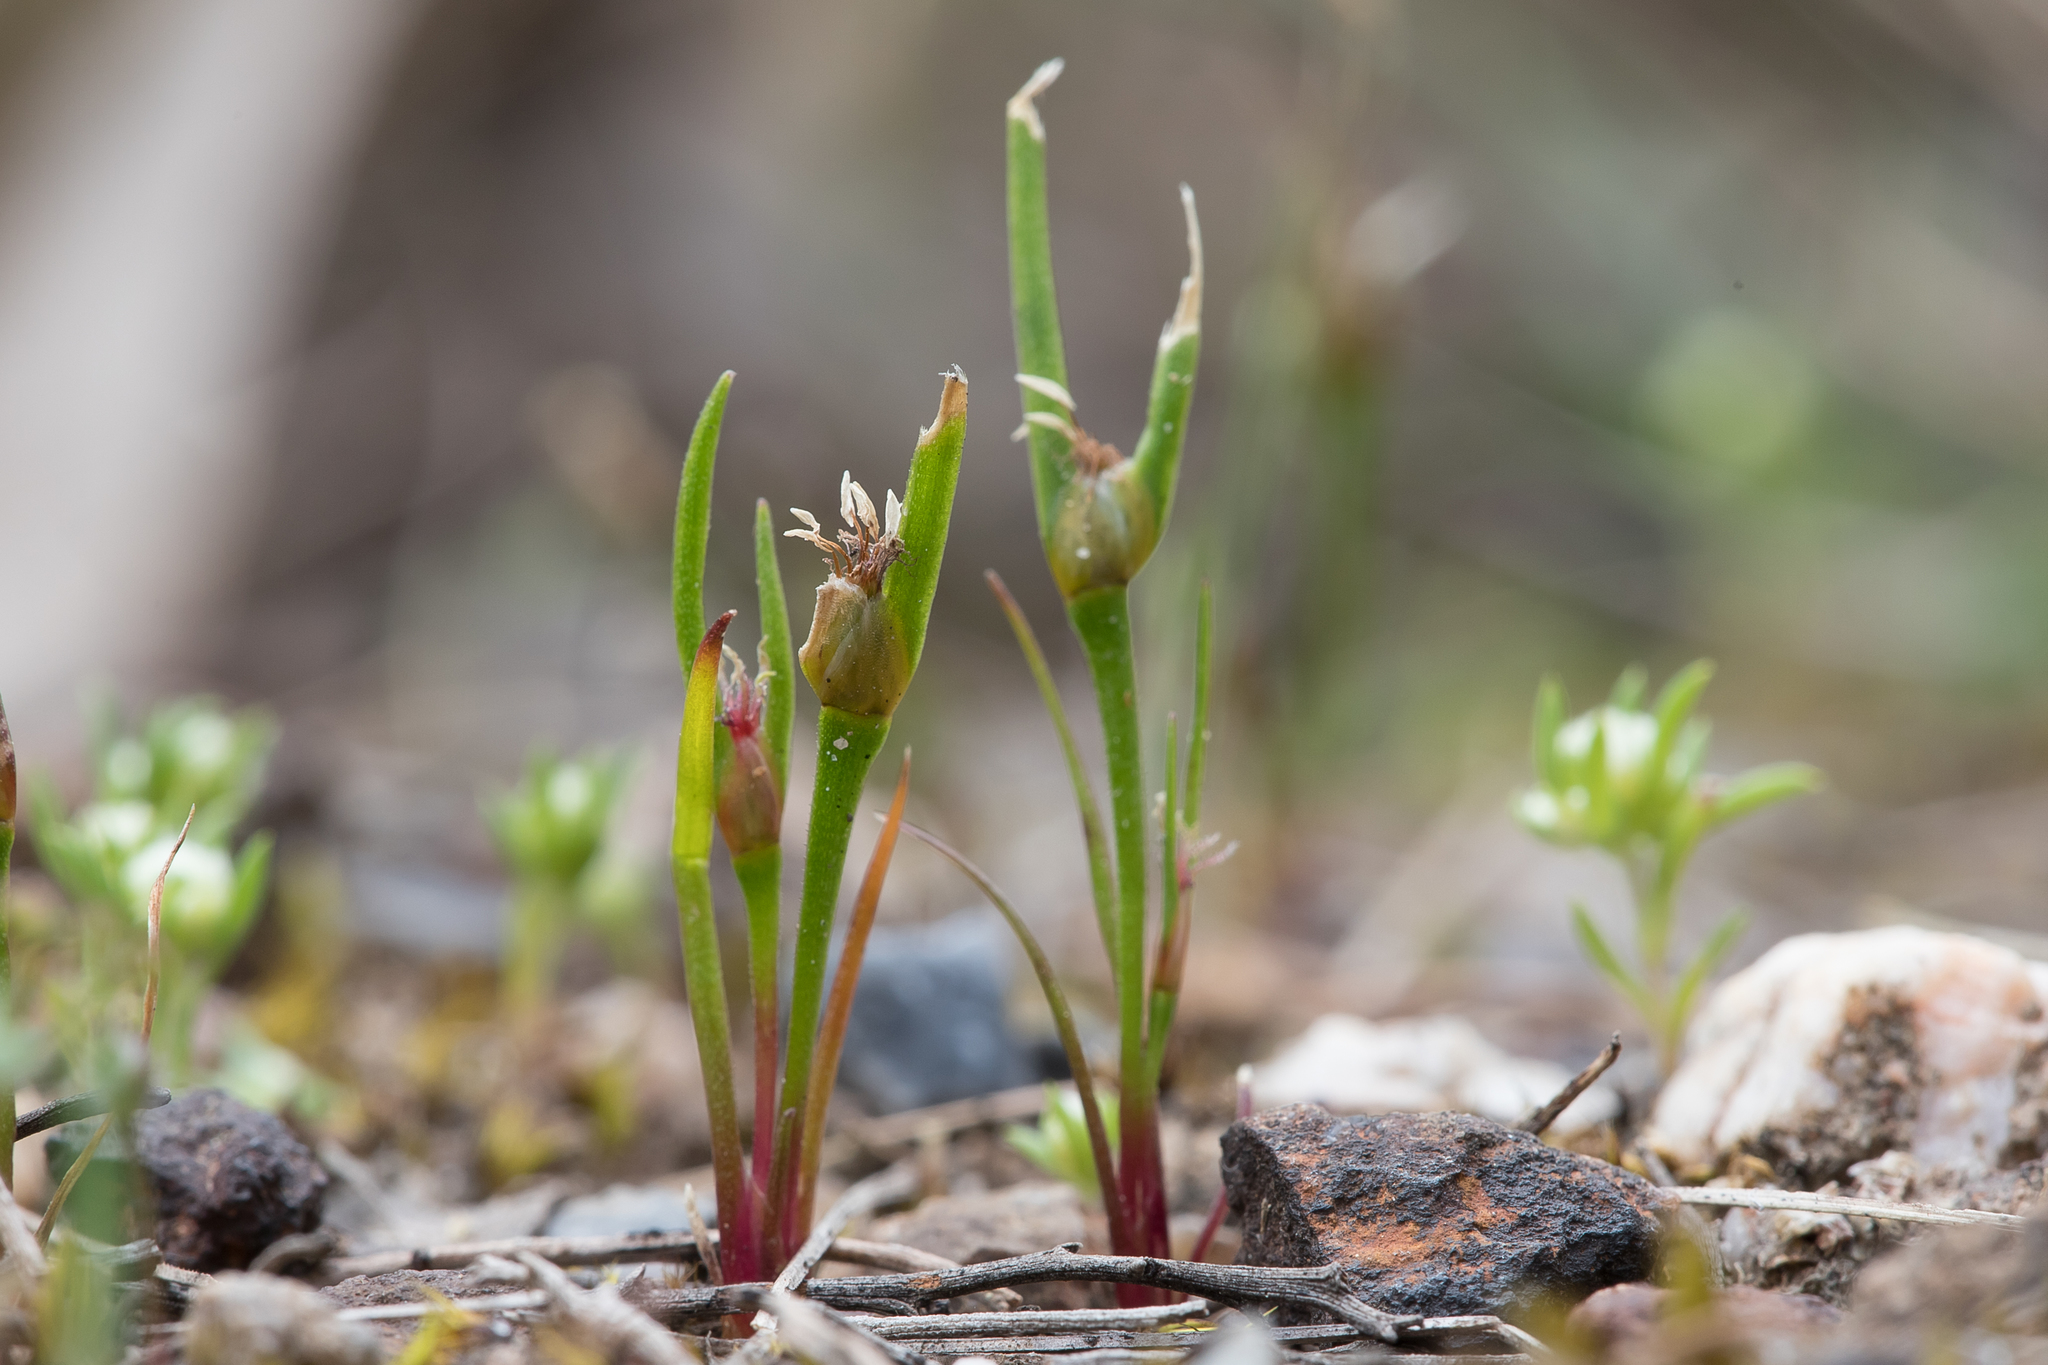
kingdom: Plantae
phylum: Tracheophyta
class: Liliopsida
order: Poales
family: Restionaceae
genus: Centrolepis
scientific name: Centrolepis aristata
